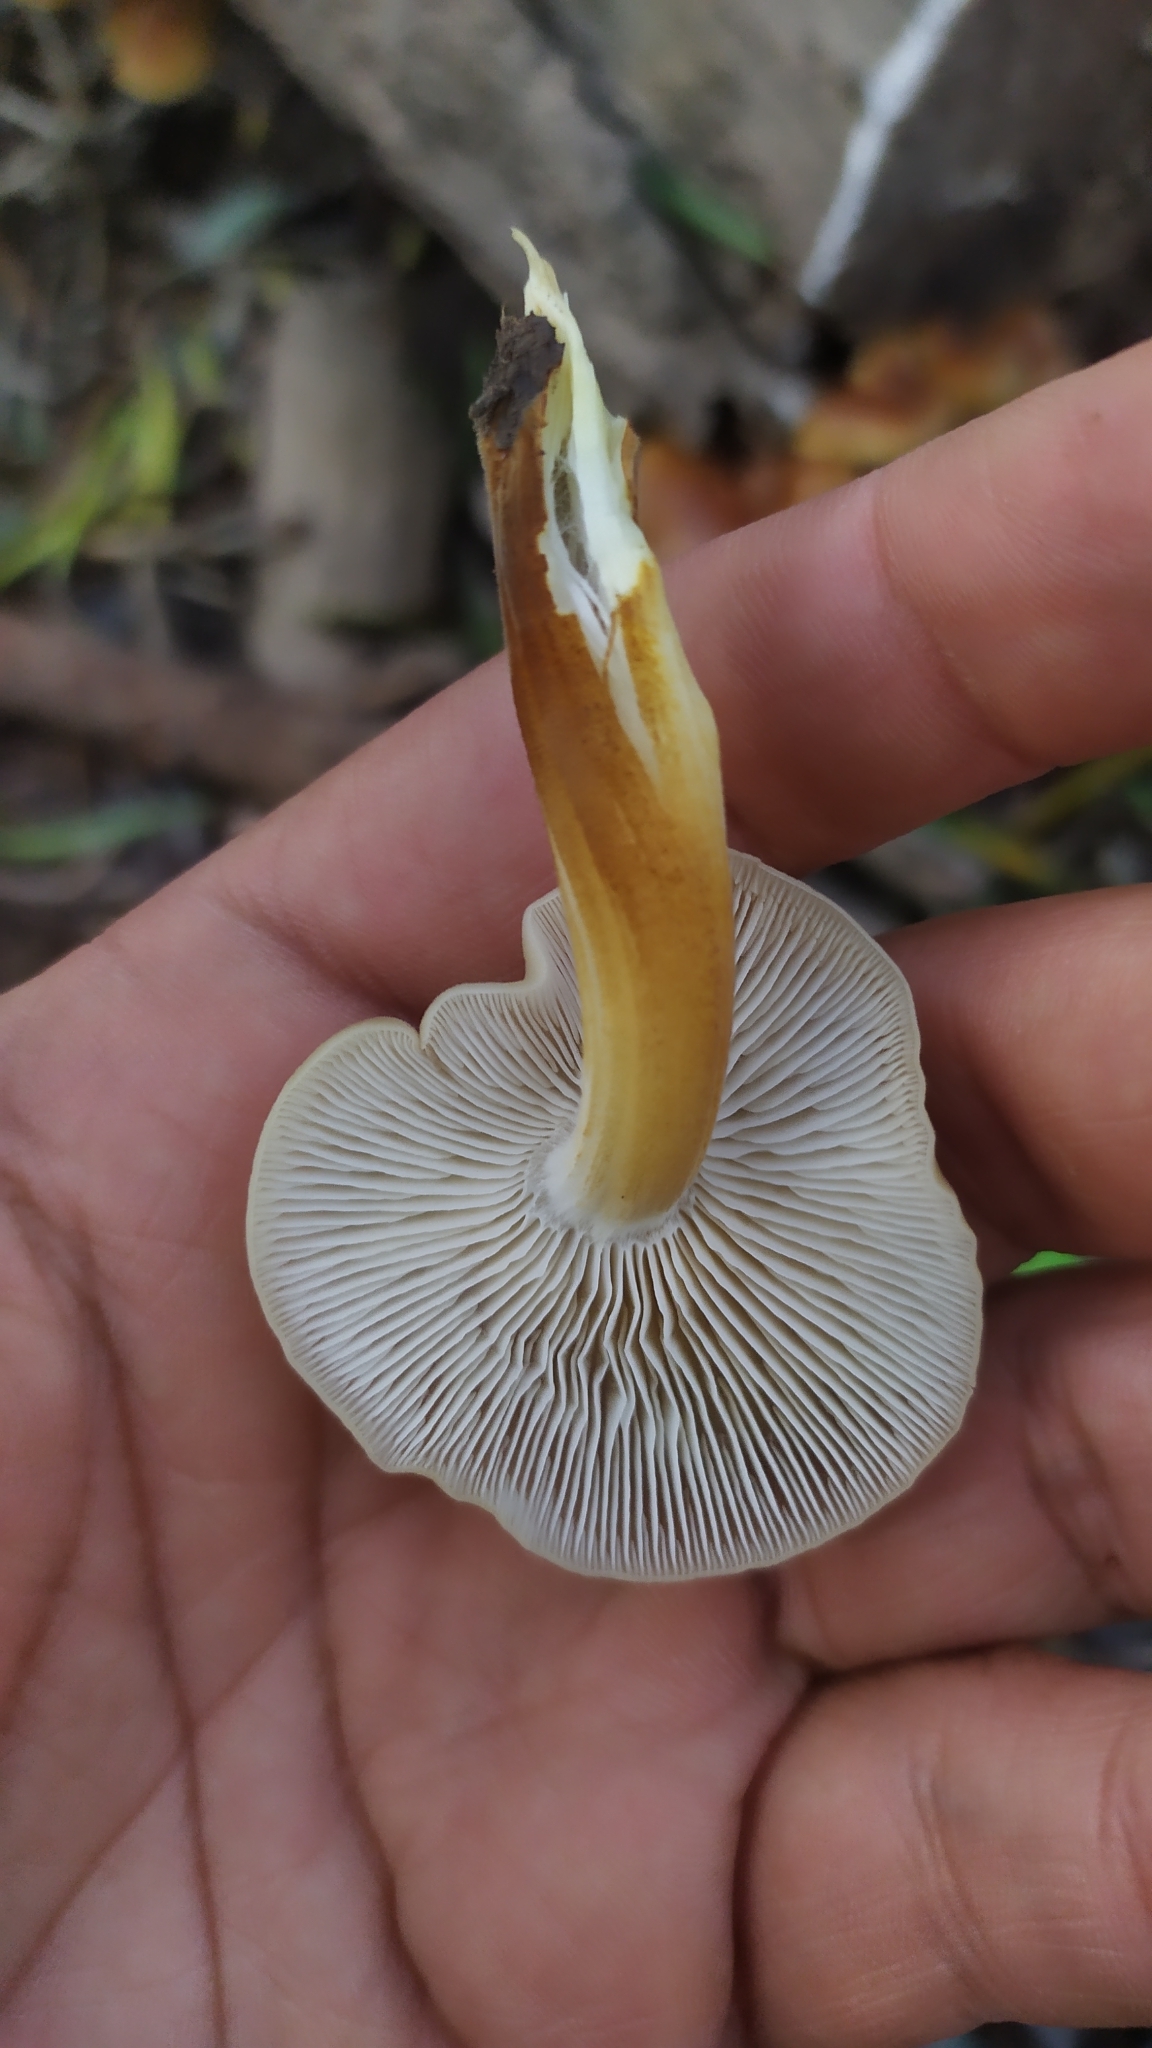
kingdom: Fungi
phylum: Basidiomycota
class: Agaricomycetes
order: Agaricales
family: Physalacriaceae
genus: Flammulina
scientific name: Flammulina velutipes
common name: Velvet shank
